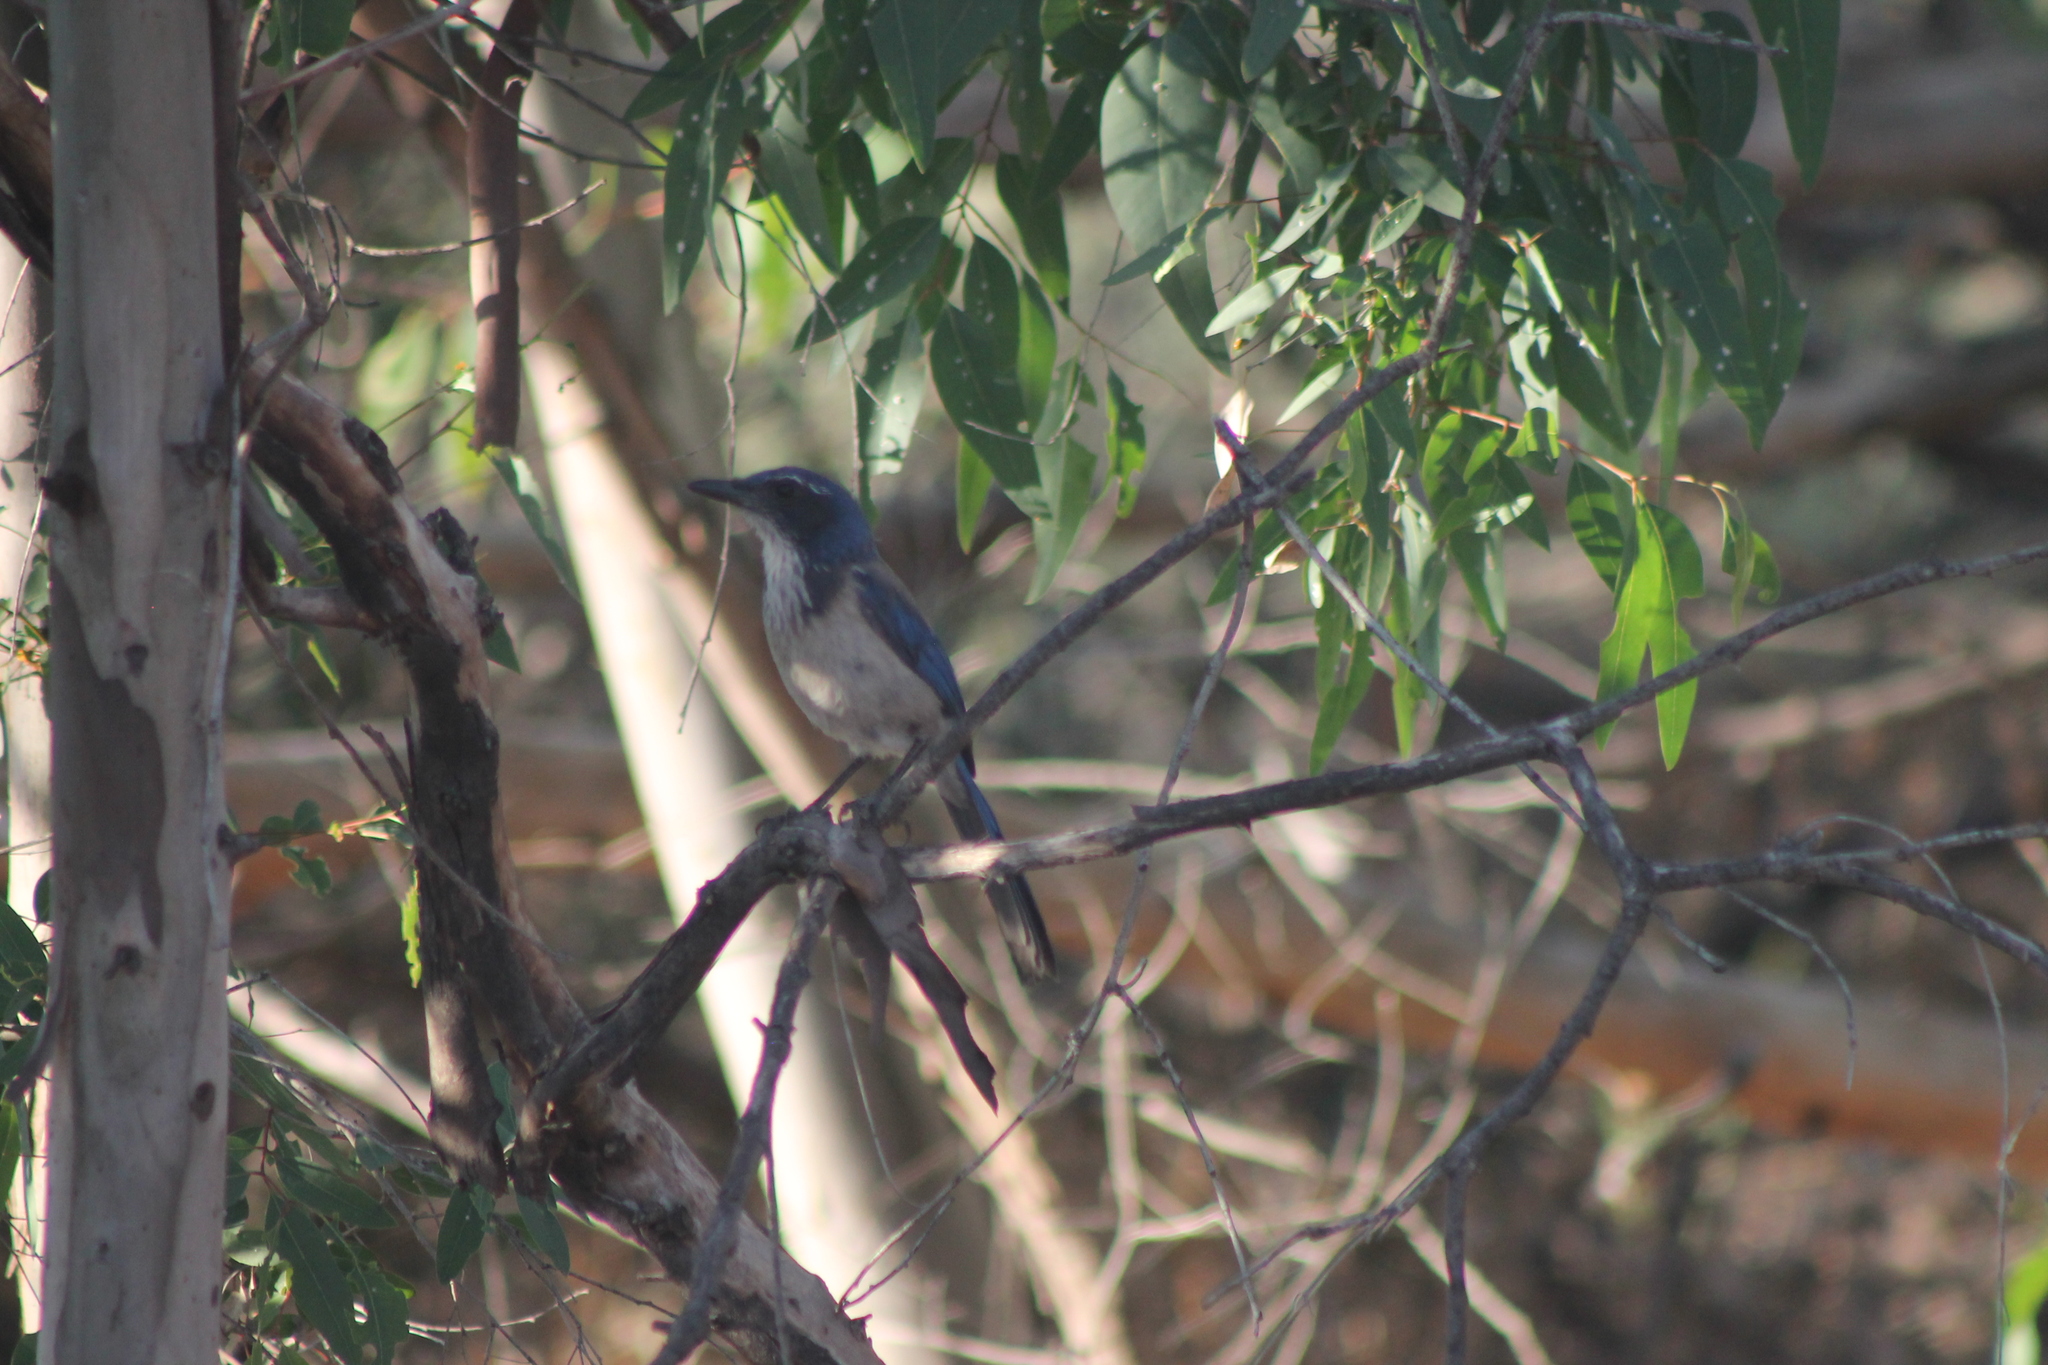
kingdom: Animalia
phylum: Chordata
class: Aves
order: Passeriformes
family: Corvidae
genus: Aphelocoma
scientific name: Aphelocoma californica
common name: California scrub-jay
